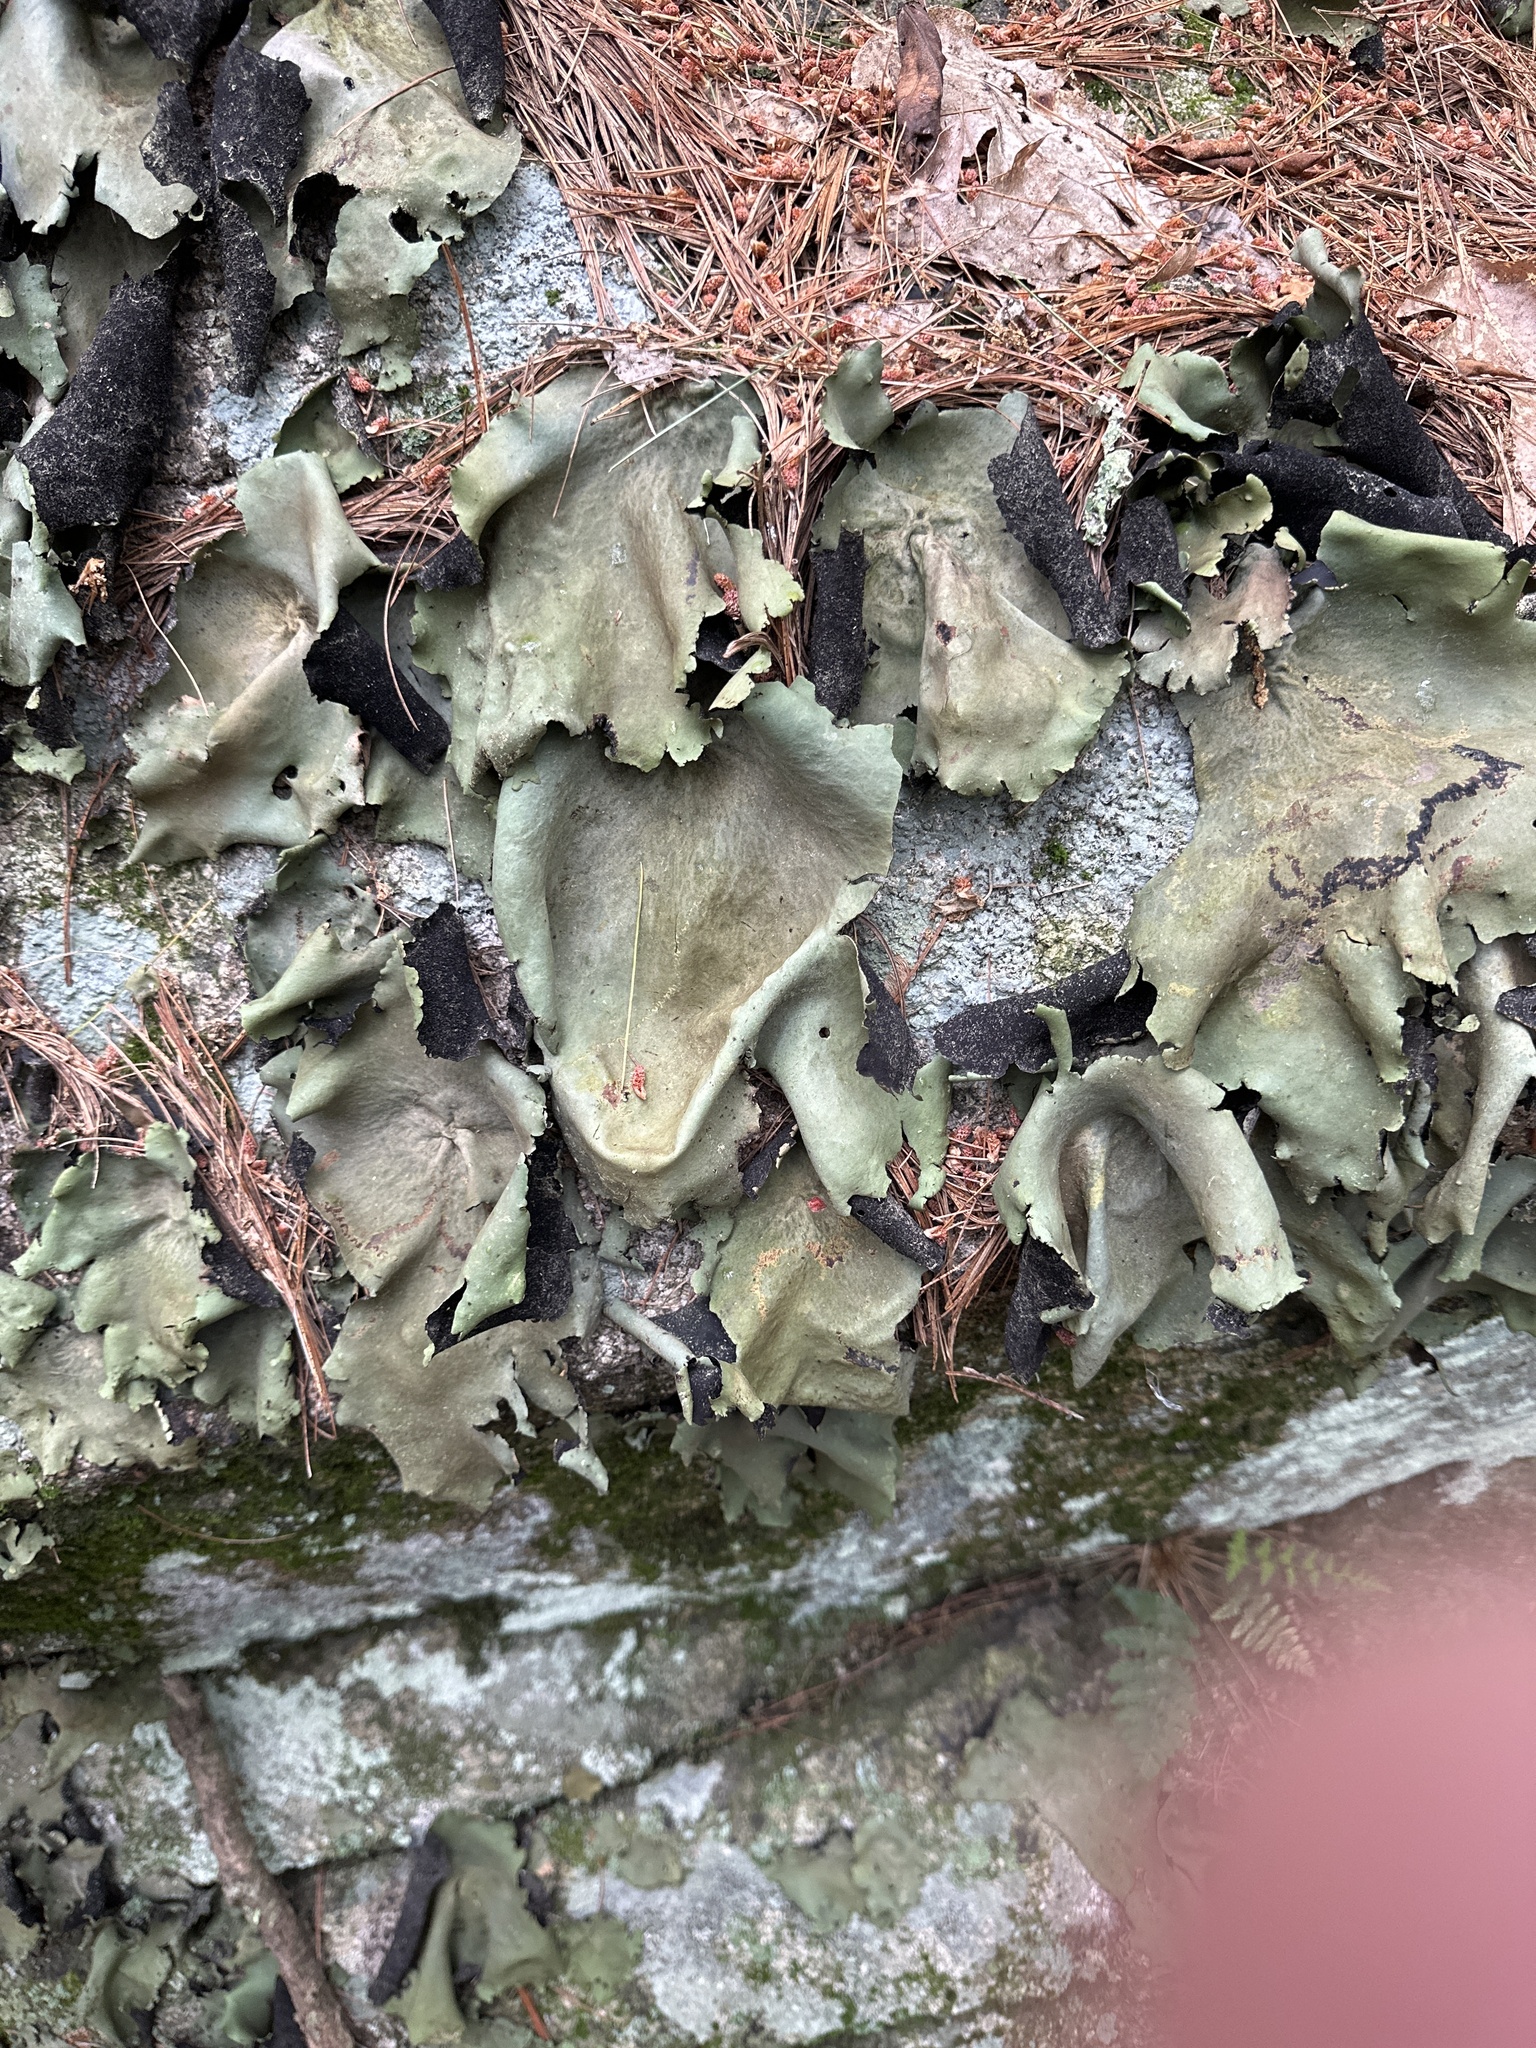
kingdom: Fungi
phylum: Ascomycota
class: Lecanoromycetes
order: Umbilicariales
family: Umbilicariaceae
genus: Umbilicaria
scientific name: Umbilicaria mammulata
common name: Smooth rock tripe
